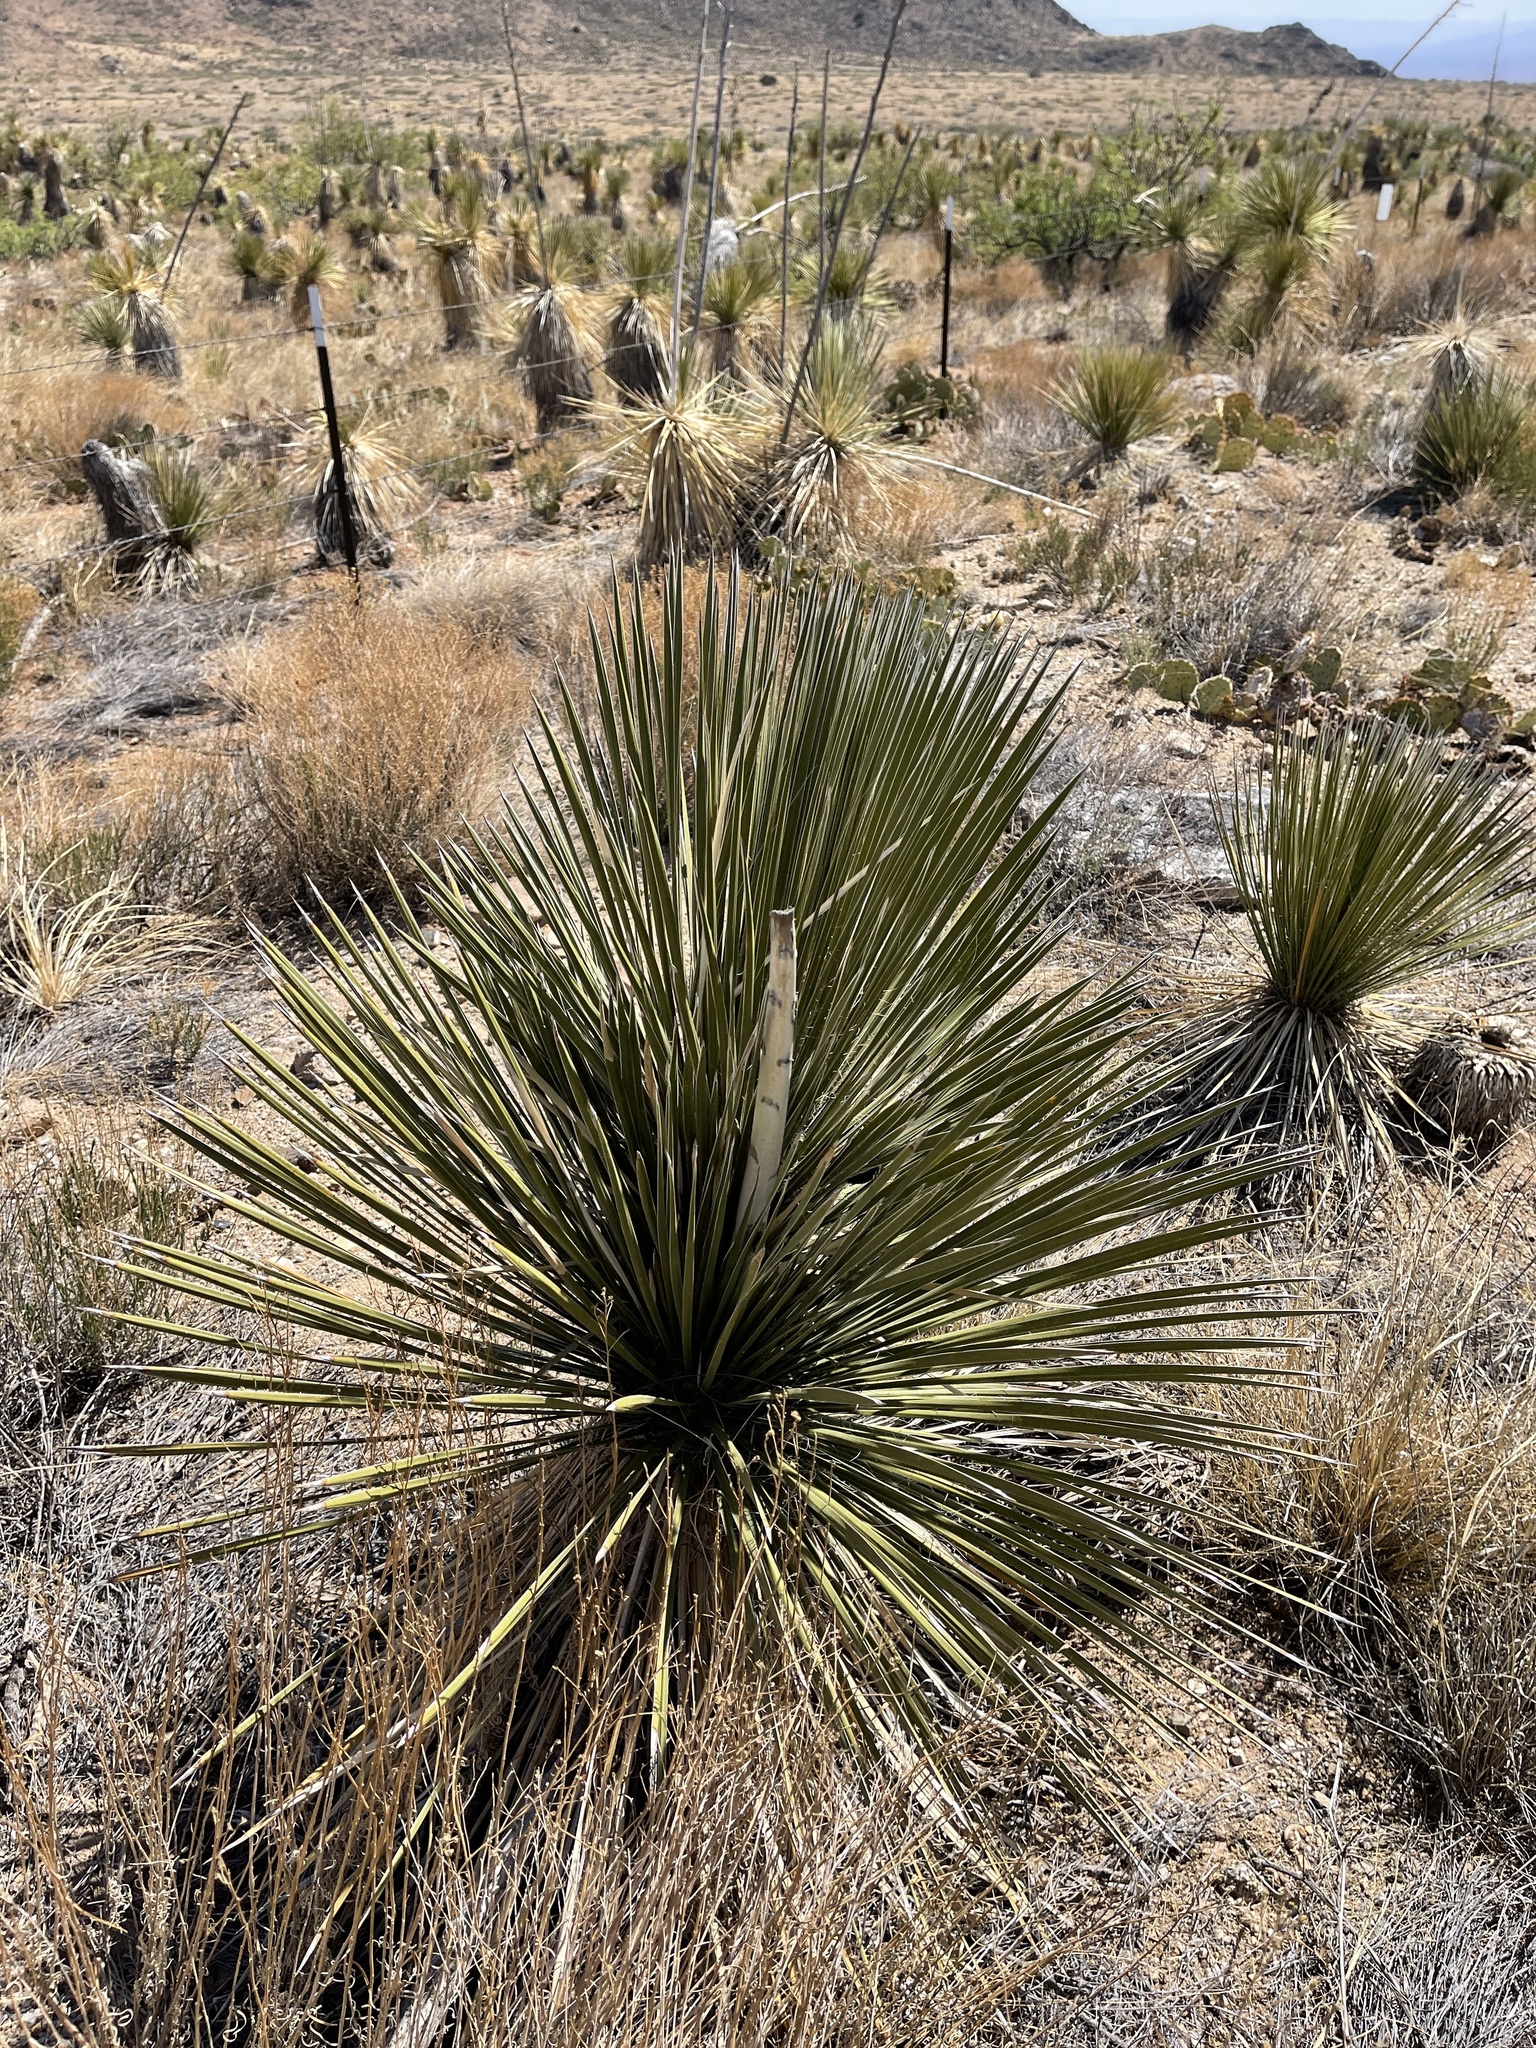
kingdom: Plantae
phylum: Tracheophyta
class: Liliopsida
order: Asparagales
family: Asparagaceae
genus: Dasylirion
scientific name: Dasylirion wheeleri
